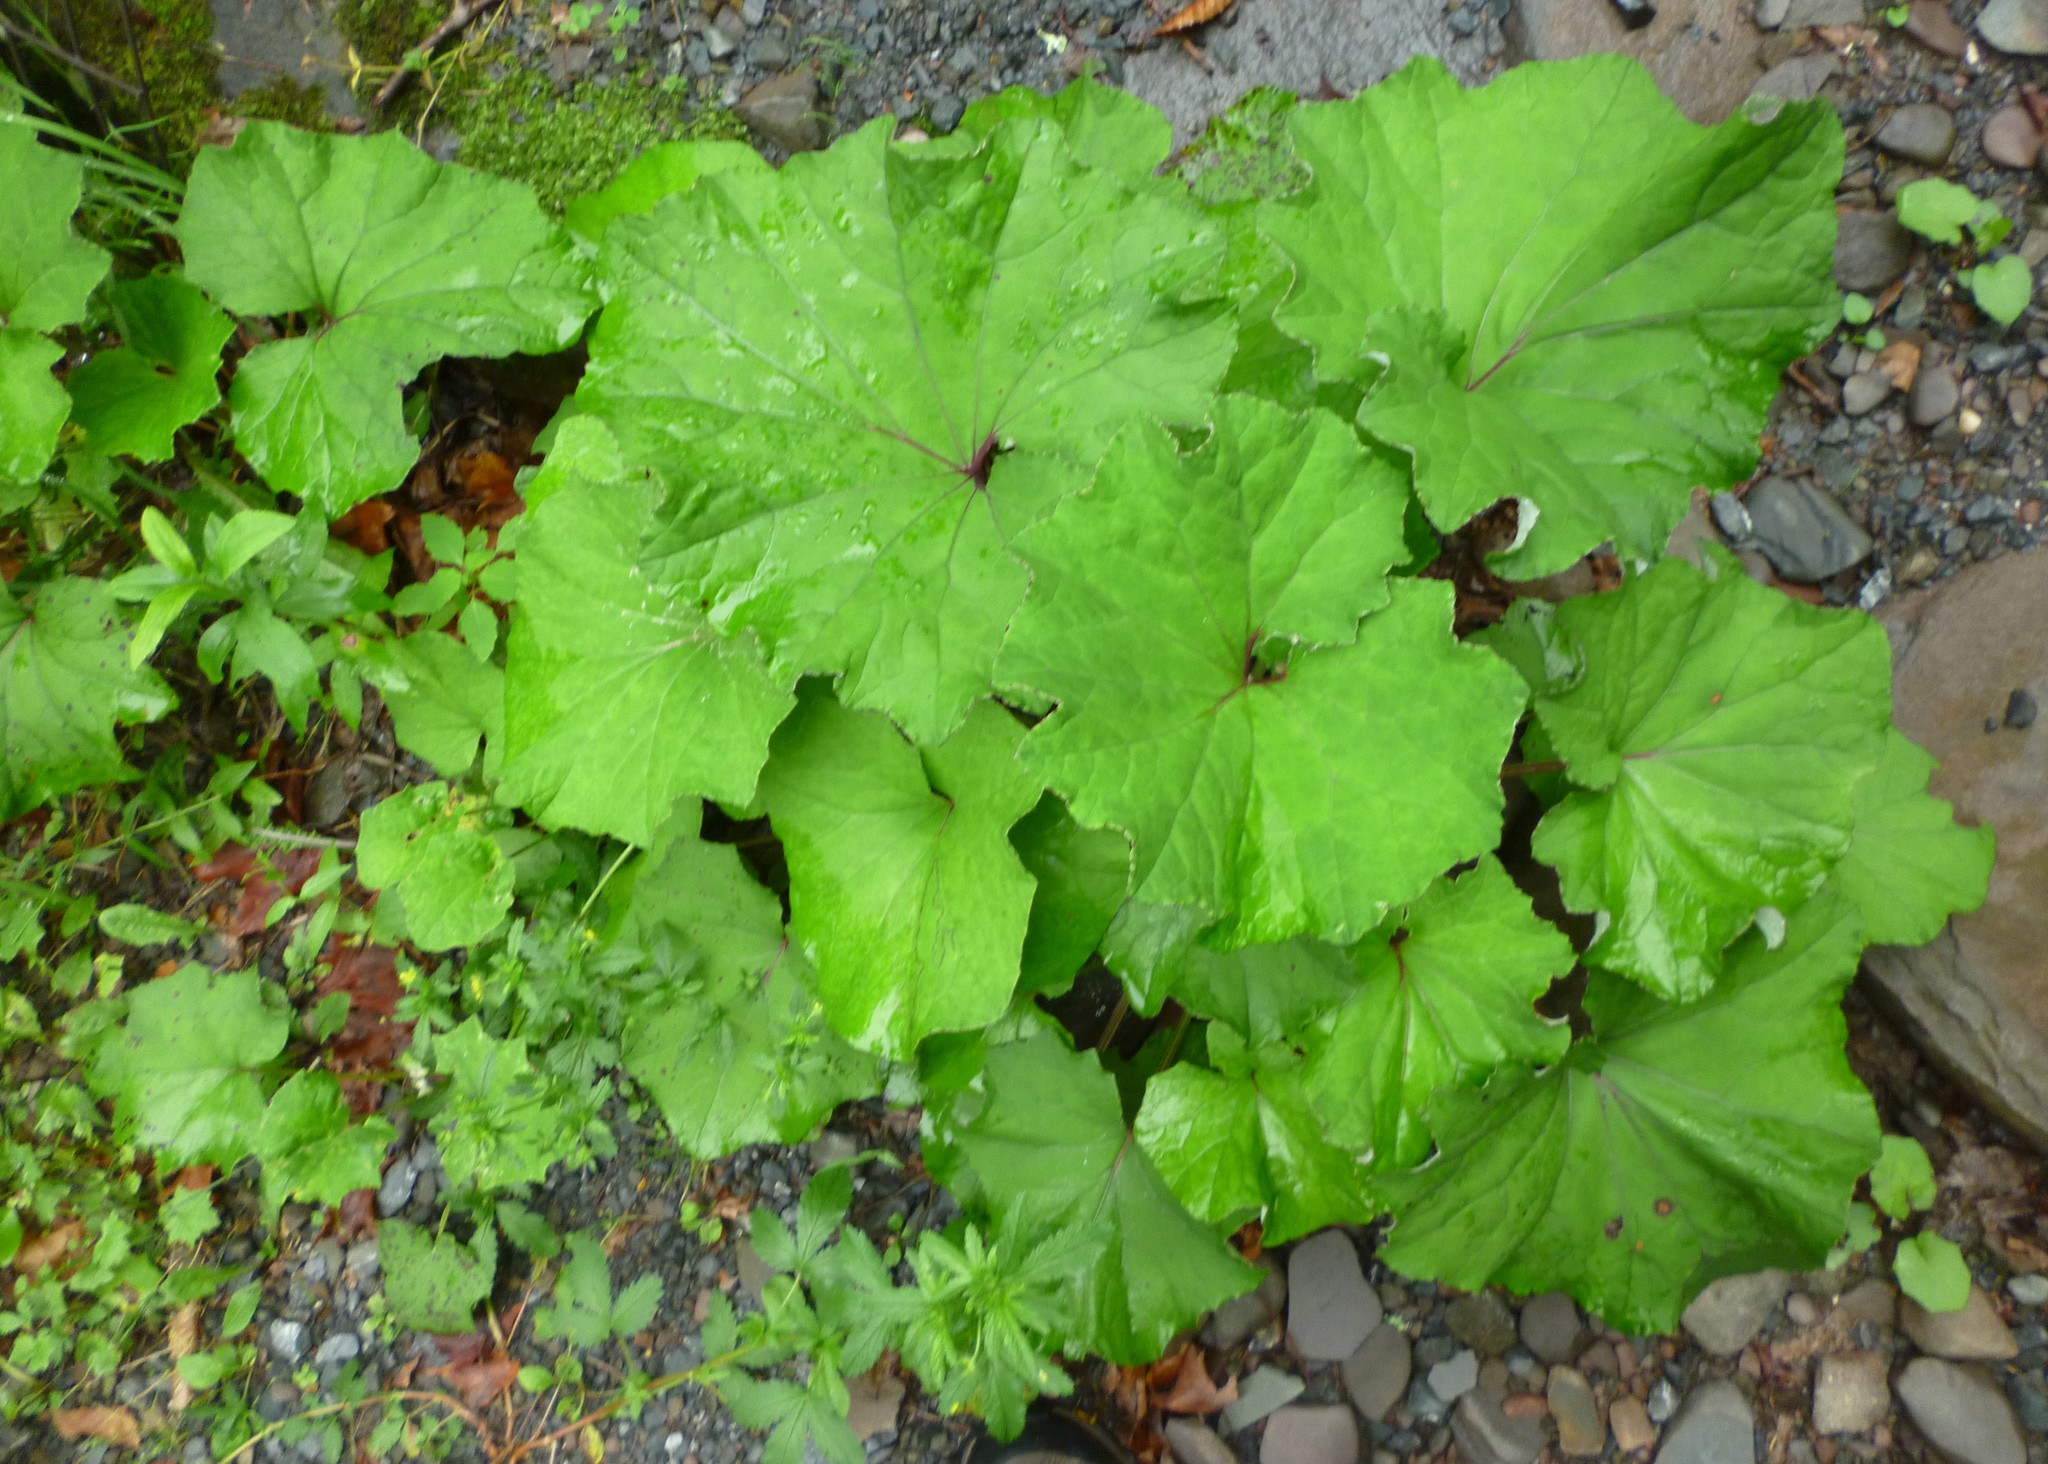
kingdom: Plantae
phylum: Tracheophyta
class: Magnoliopsida
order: Asterales
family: Asteraceae
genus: Tussilago
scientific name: Tussilago farfara
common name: Coltsfoot
